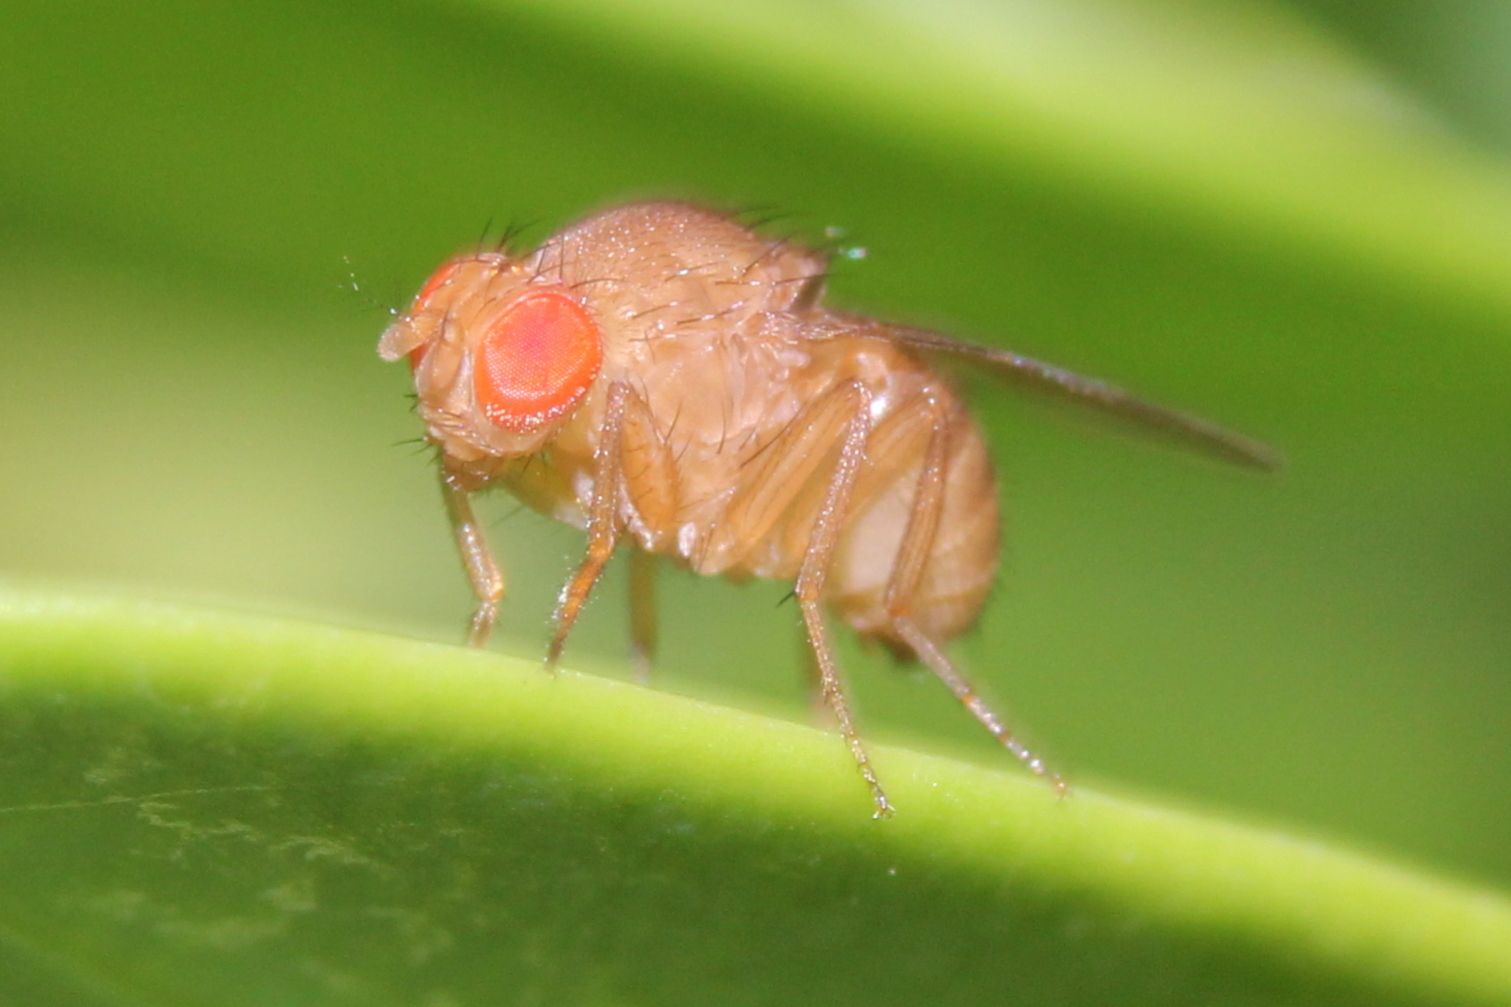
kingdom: Animalia
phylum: Arthropoda
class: Insecta
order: Diptera
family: Drosophilidae
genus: Drosophila
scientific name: Drosophila immigrans
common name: Pomace fly
